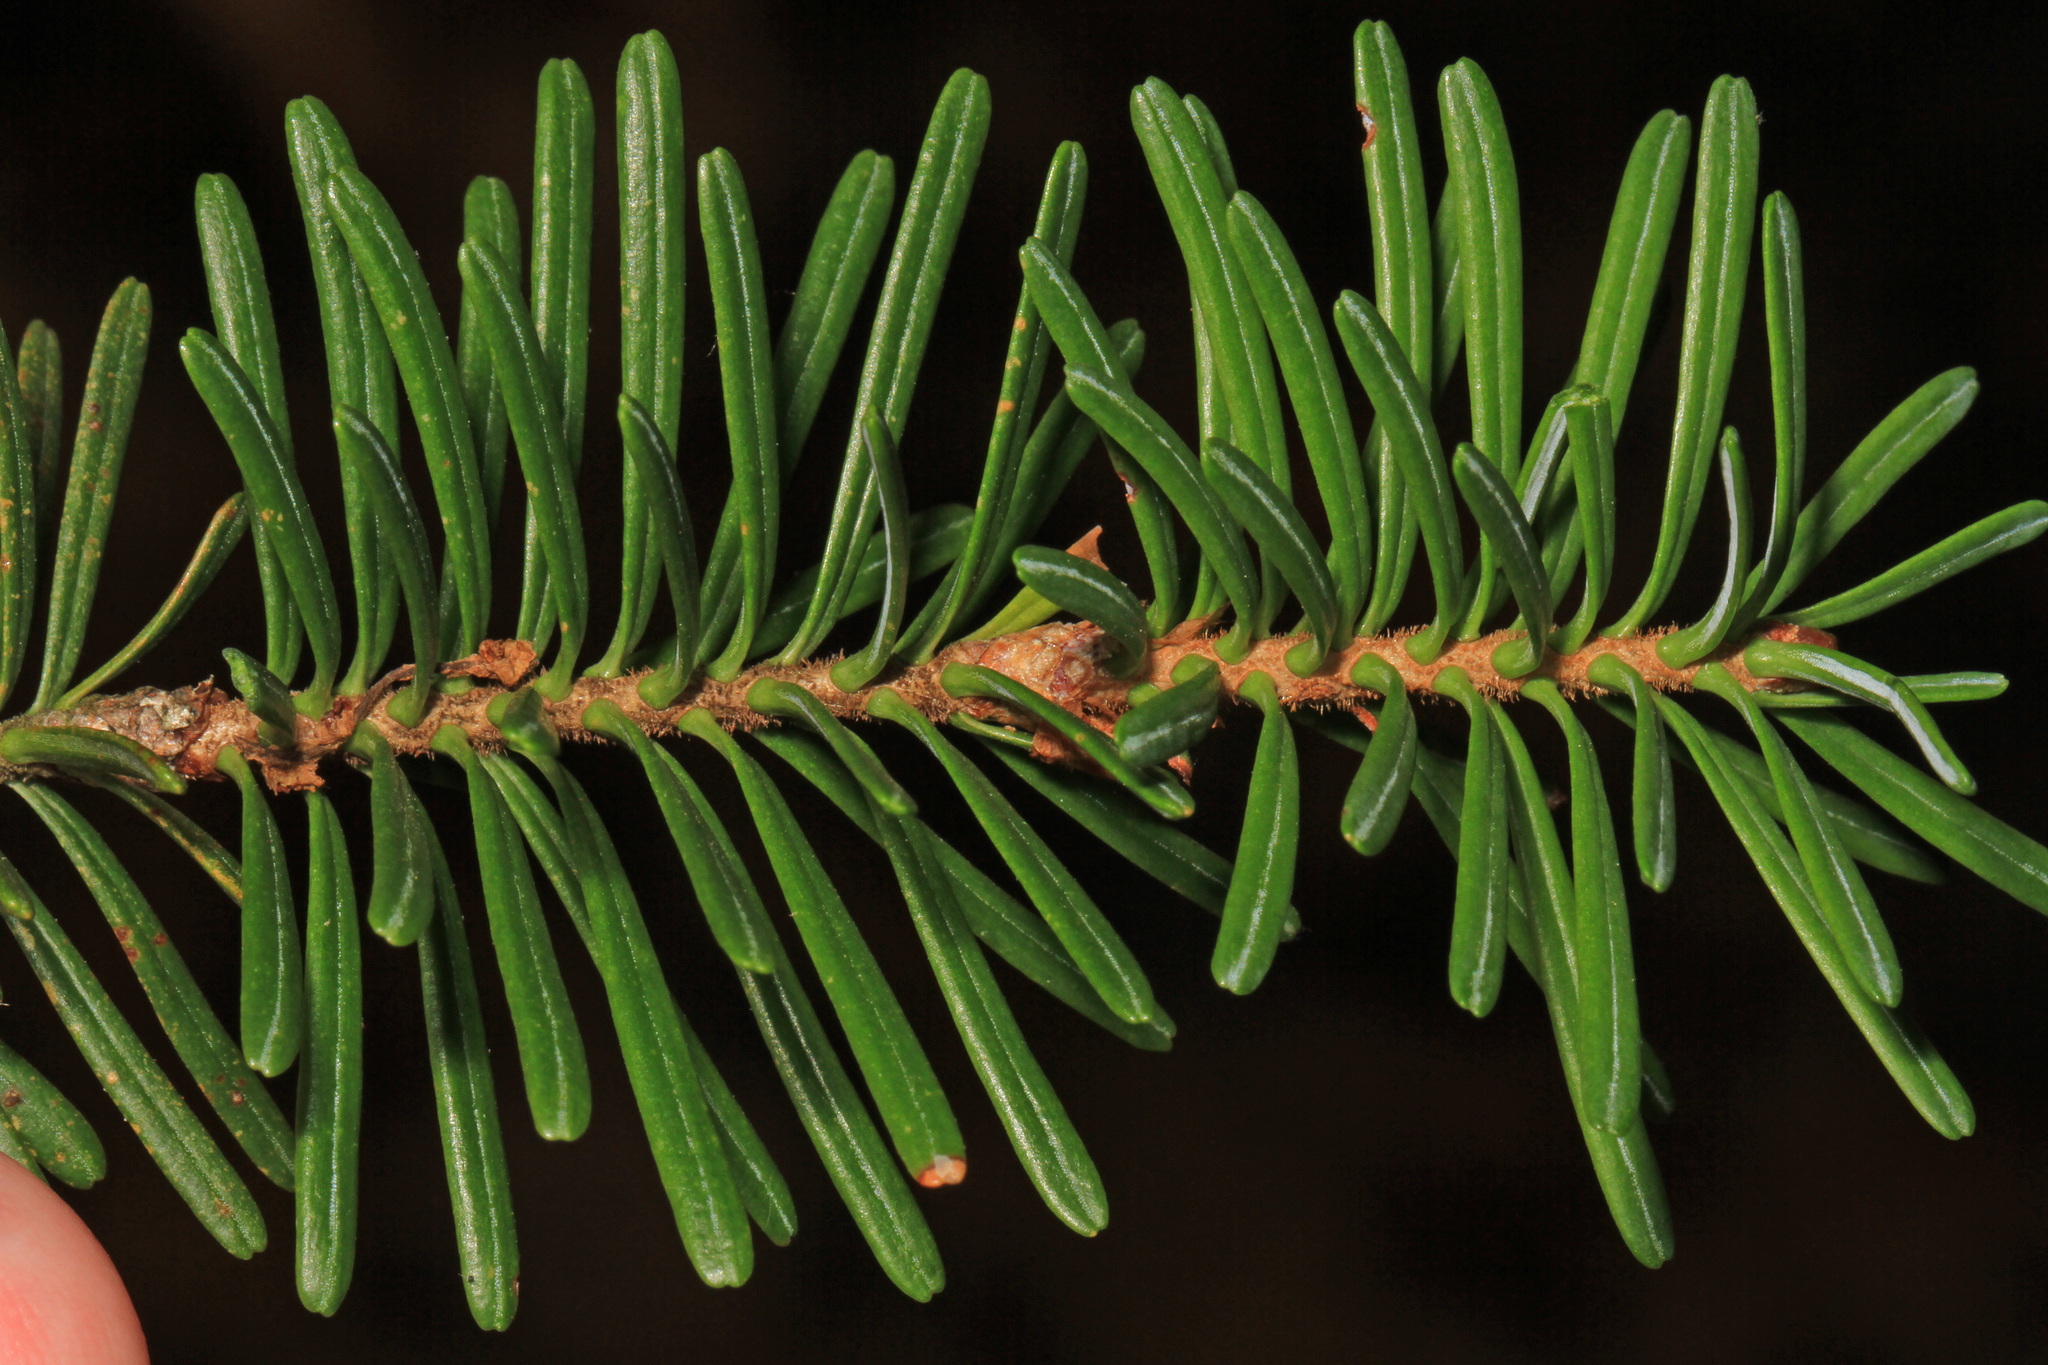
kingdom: Plantae
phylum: Tracheophyta
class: Pinopsida
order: Pinales
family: Pinaceae
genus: Abies
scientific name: Abies balsamea
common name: Balsam fir
